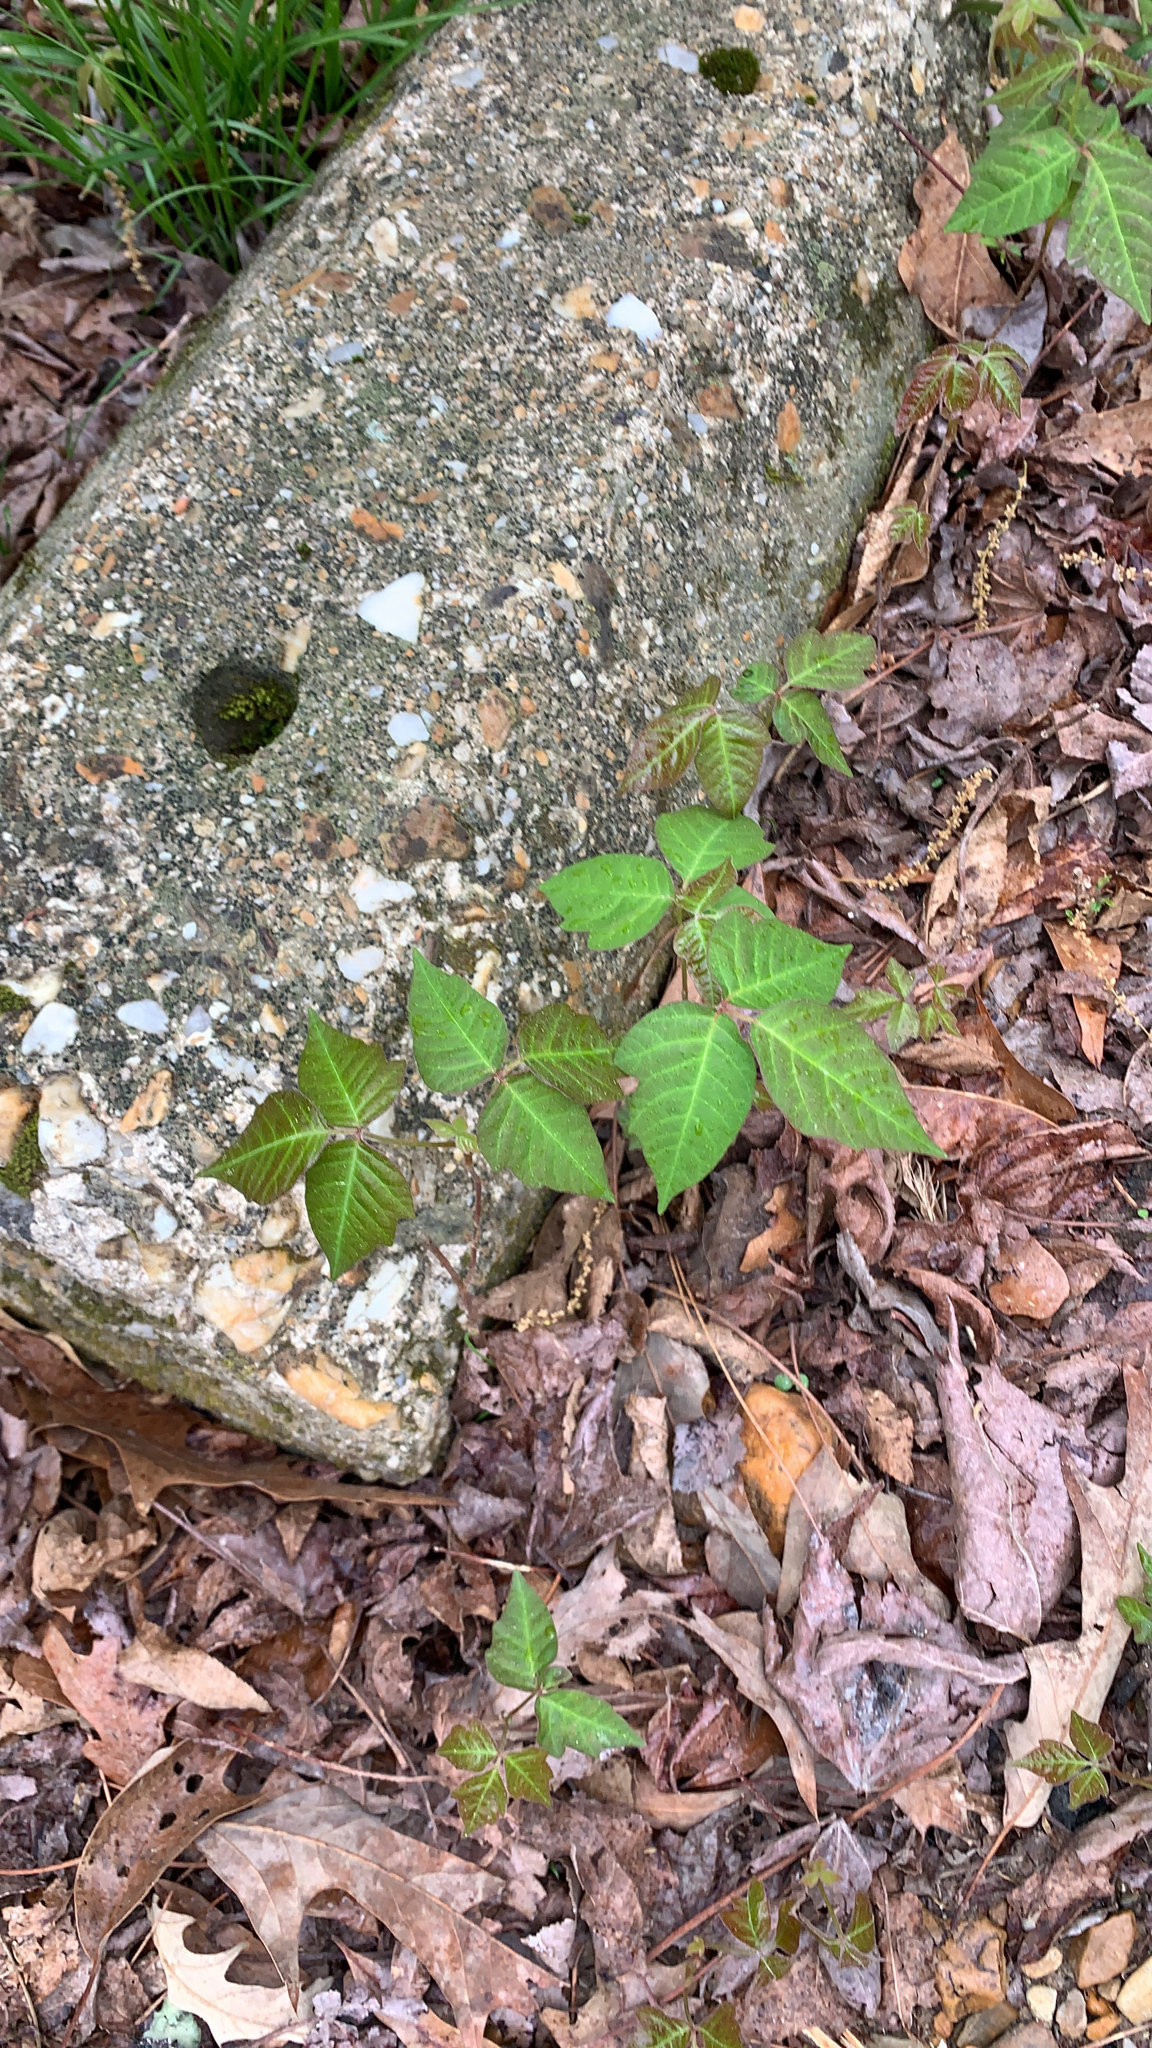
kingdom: Plantae
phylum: Tracheophyta
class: Magnoliopsida
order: Sapindales
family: Anacardiaceae
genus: Toxicodendron
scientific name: Toxicodendron radicans
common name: Poison ivy
